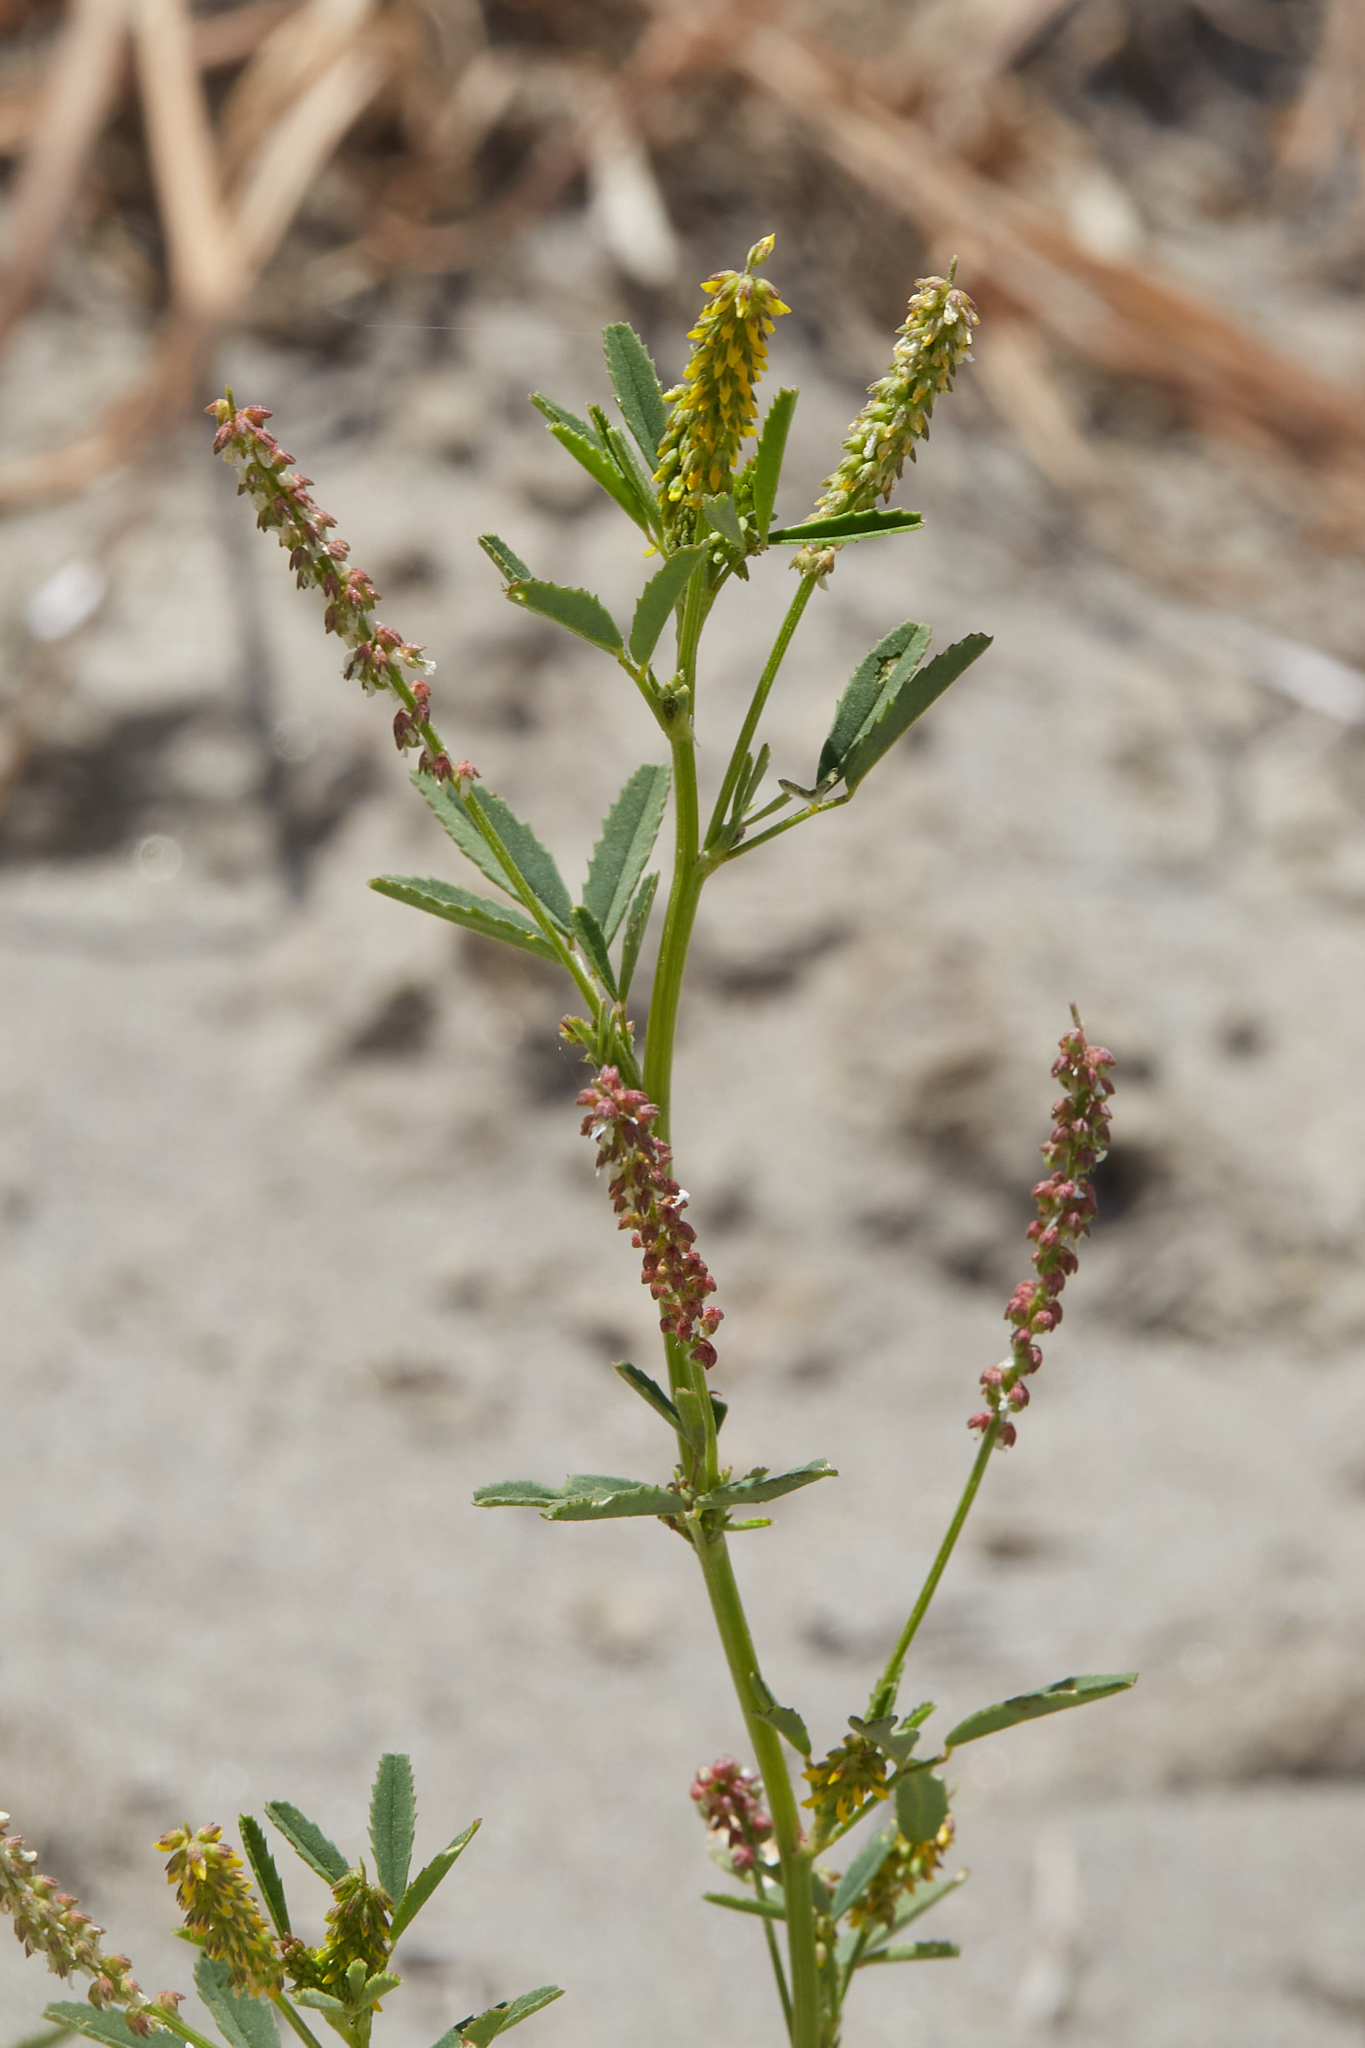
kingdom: Plantae
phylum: Tracheophyta
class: Magnoliopsida
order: Fabales
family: Fabaceae
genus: Melilotus
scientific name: Melilotus indicus
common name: Small melilot
